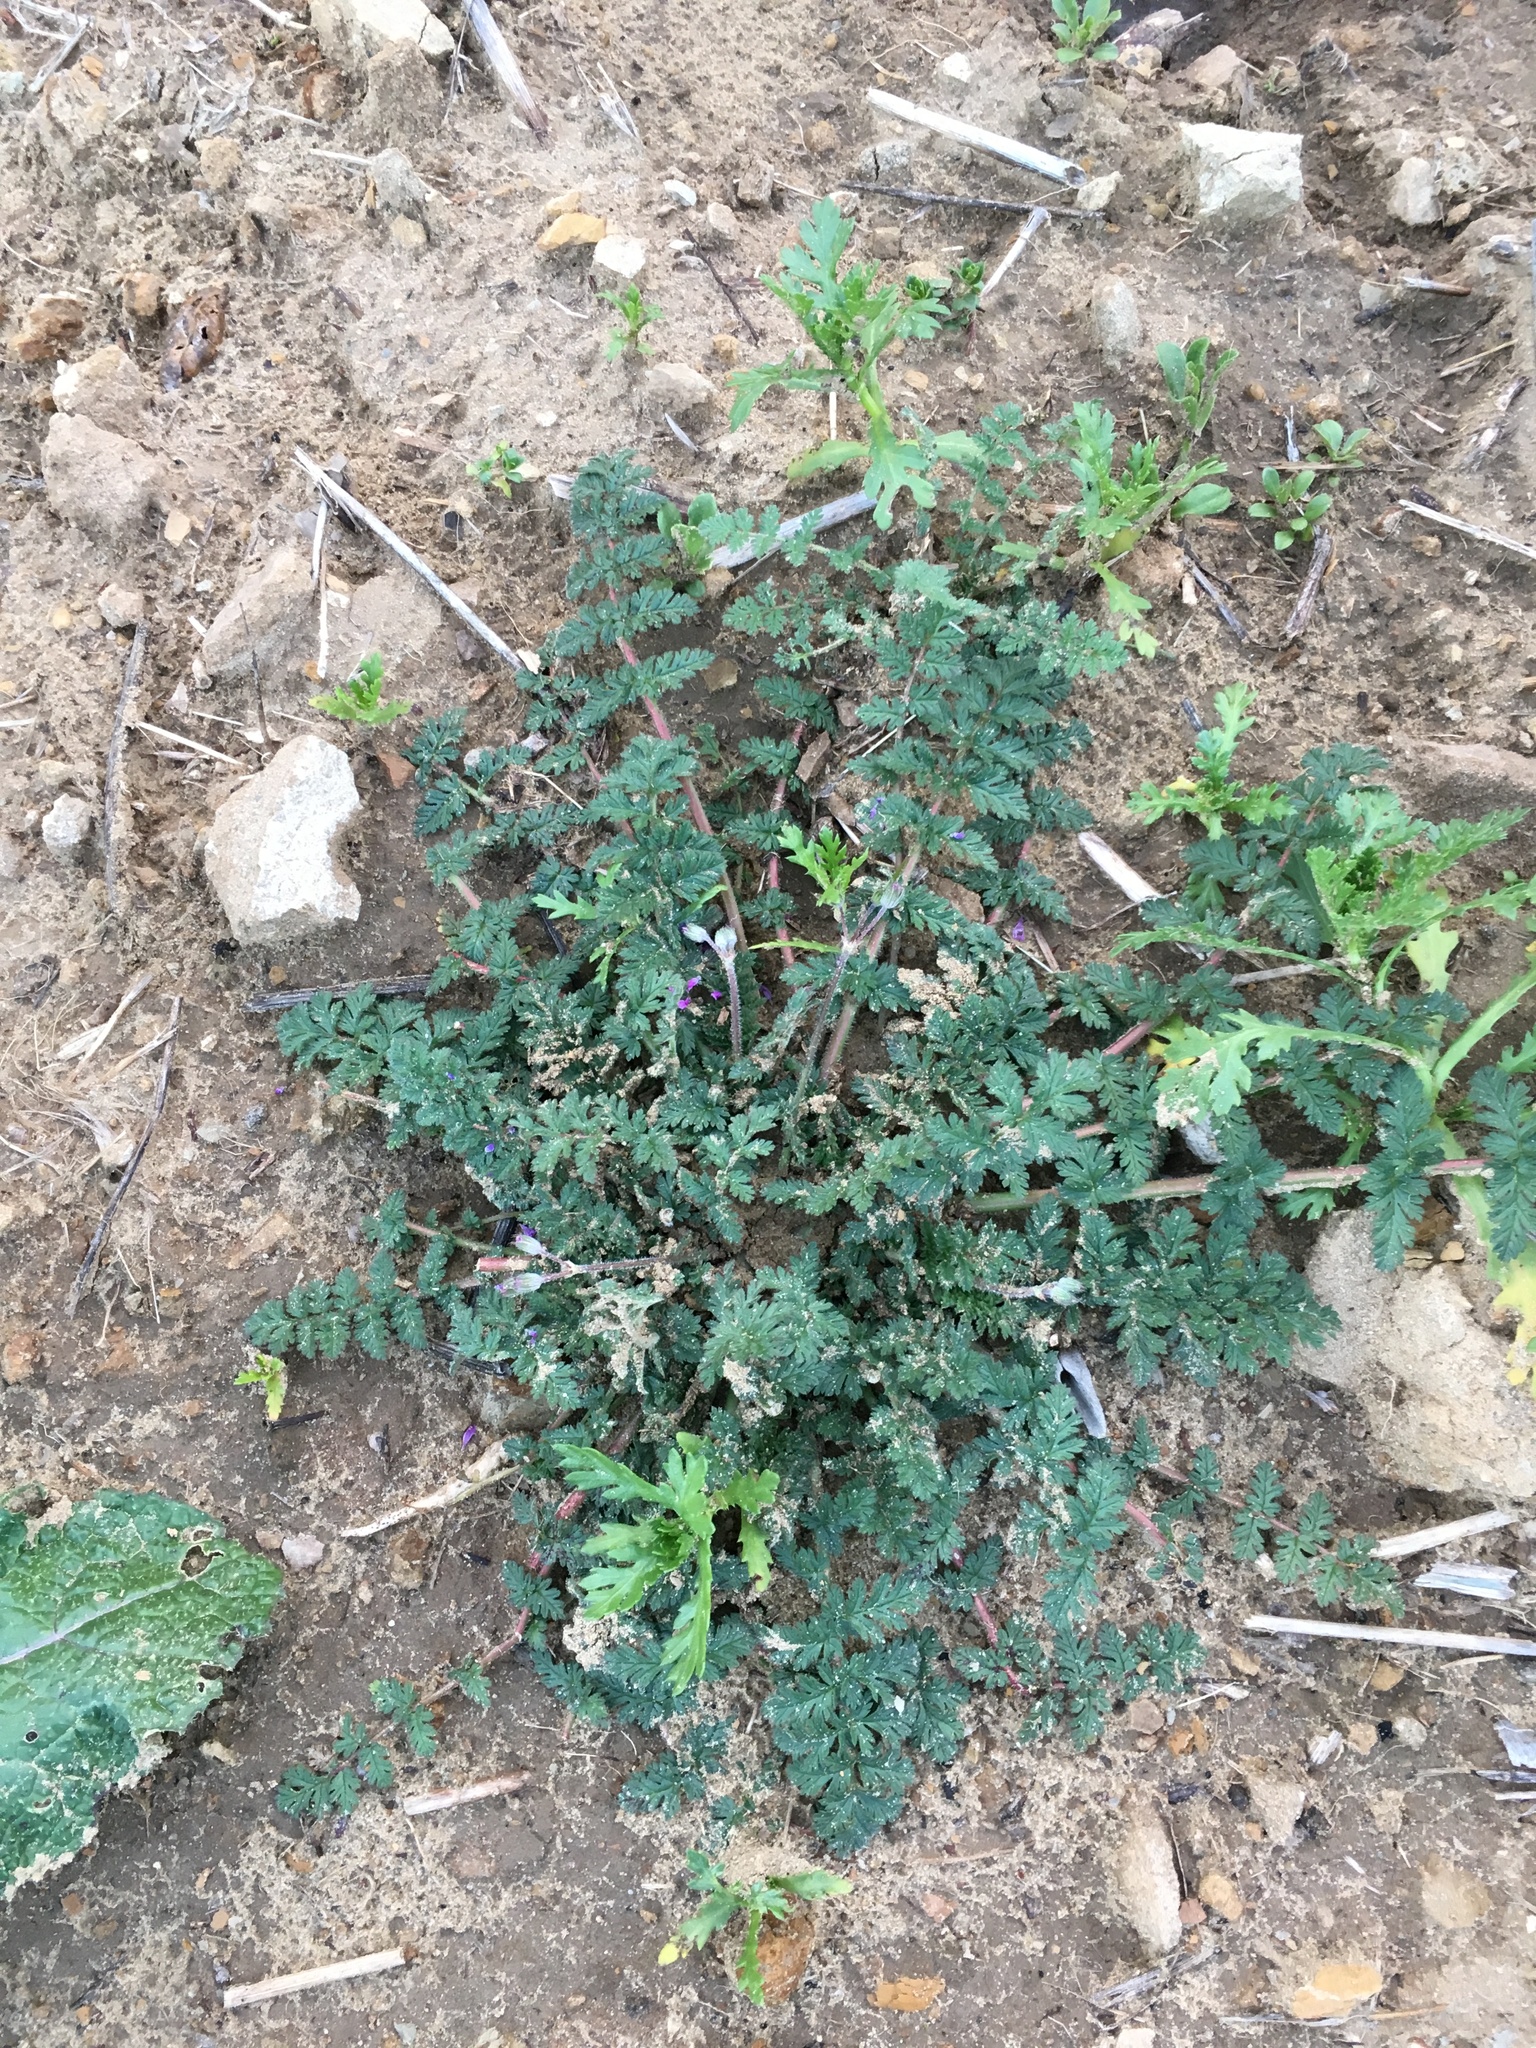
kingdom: Plantae
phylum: Tracheophyta
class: Magnoliopsida
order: Geraniales
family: Geraniaceae
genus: Erodium
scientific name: Erodium cicutarium
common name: Common stork's-bill
